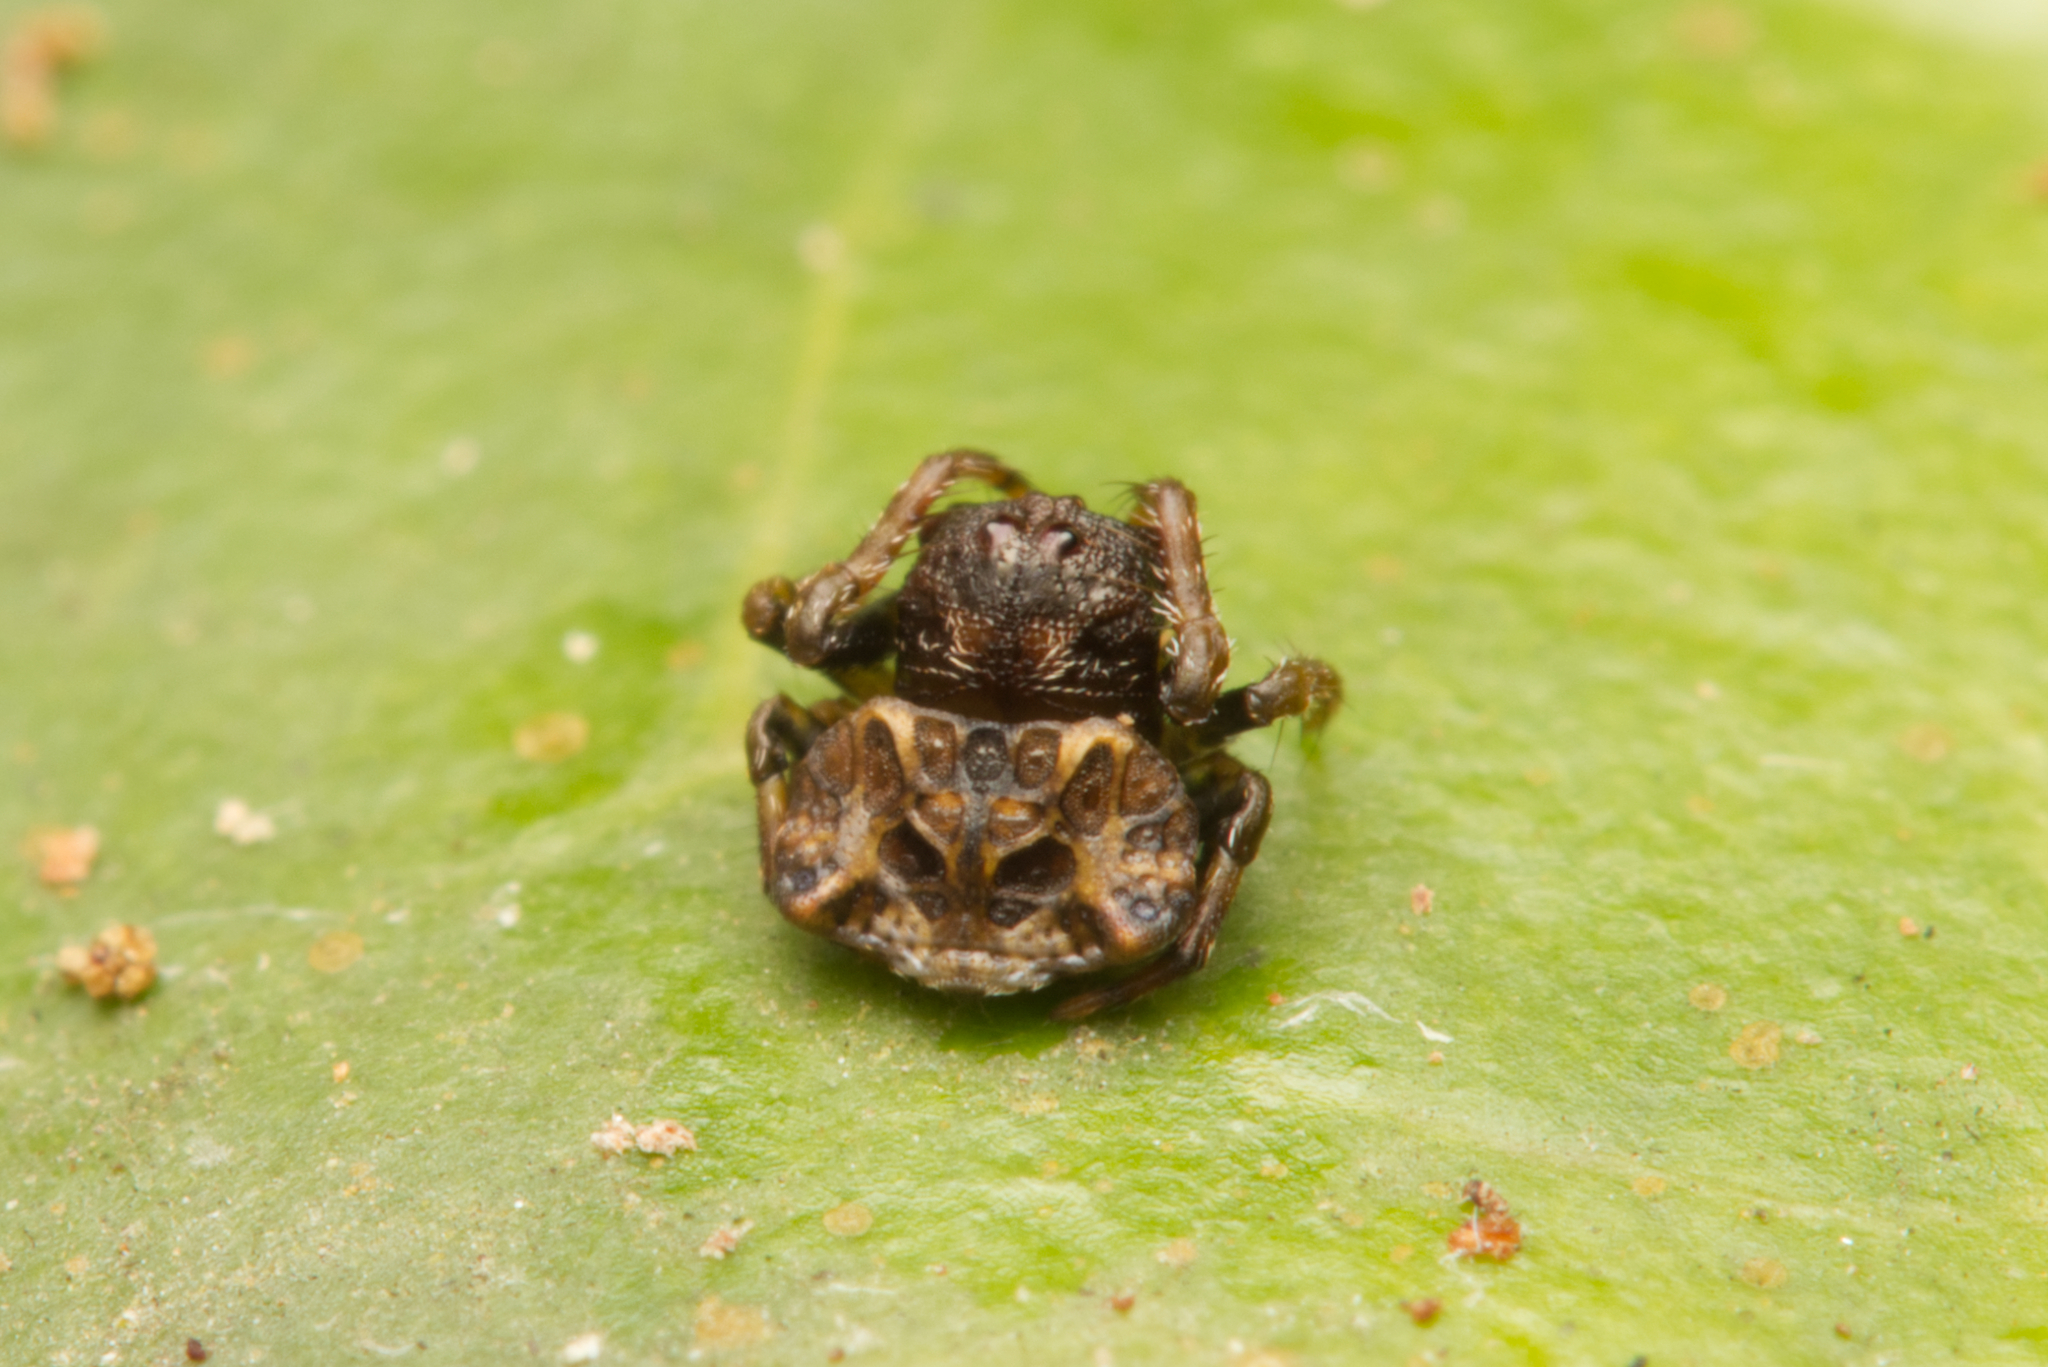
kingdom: Animalia
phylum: Arthropoda
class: Arachnida
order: Araneae
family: Arkyidae
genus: Arkys
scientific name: Arkys curtulus
